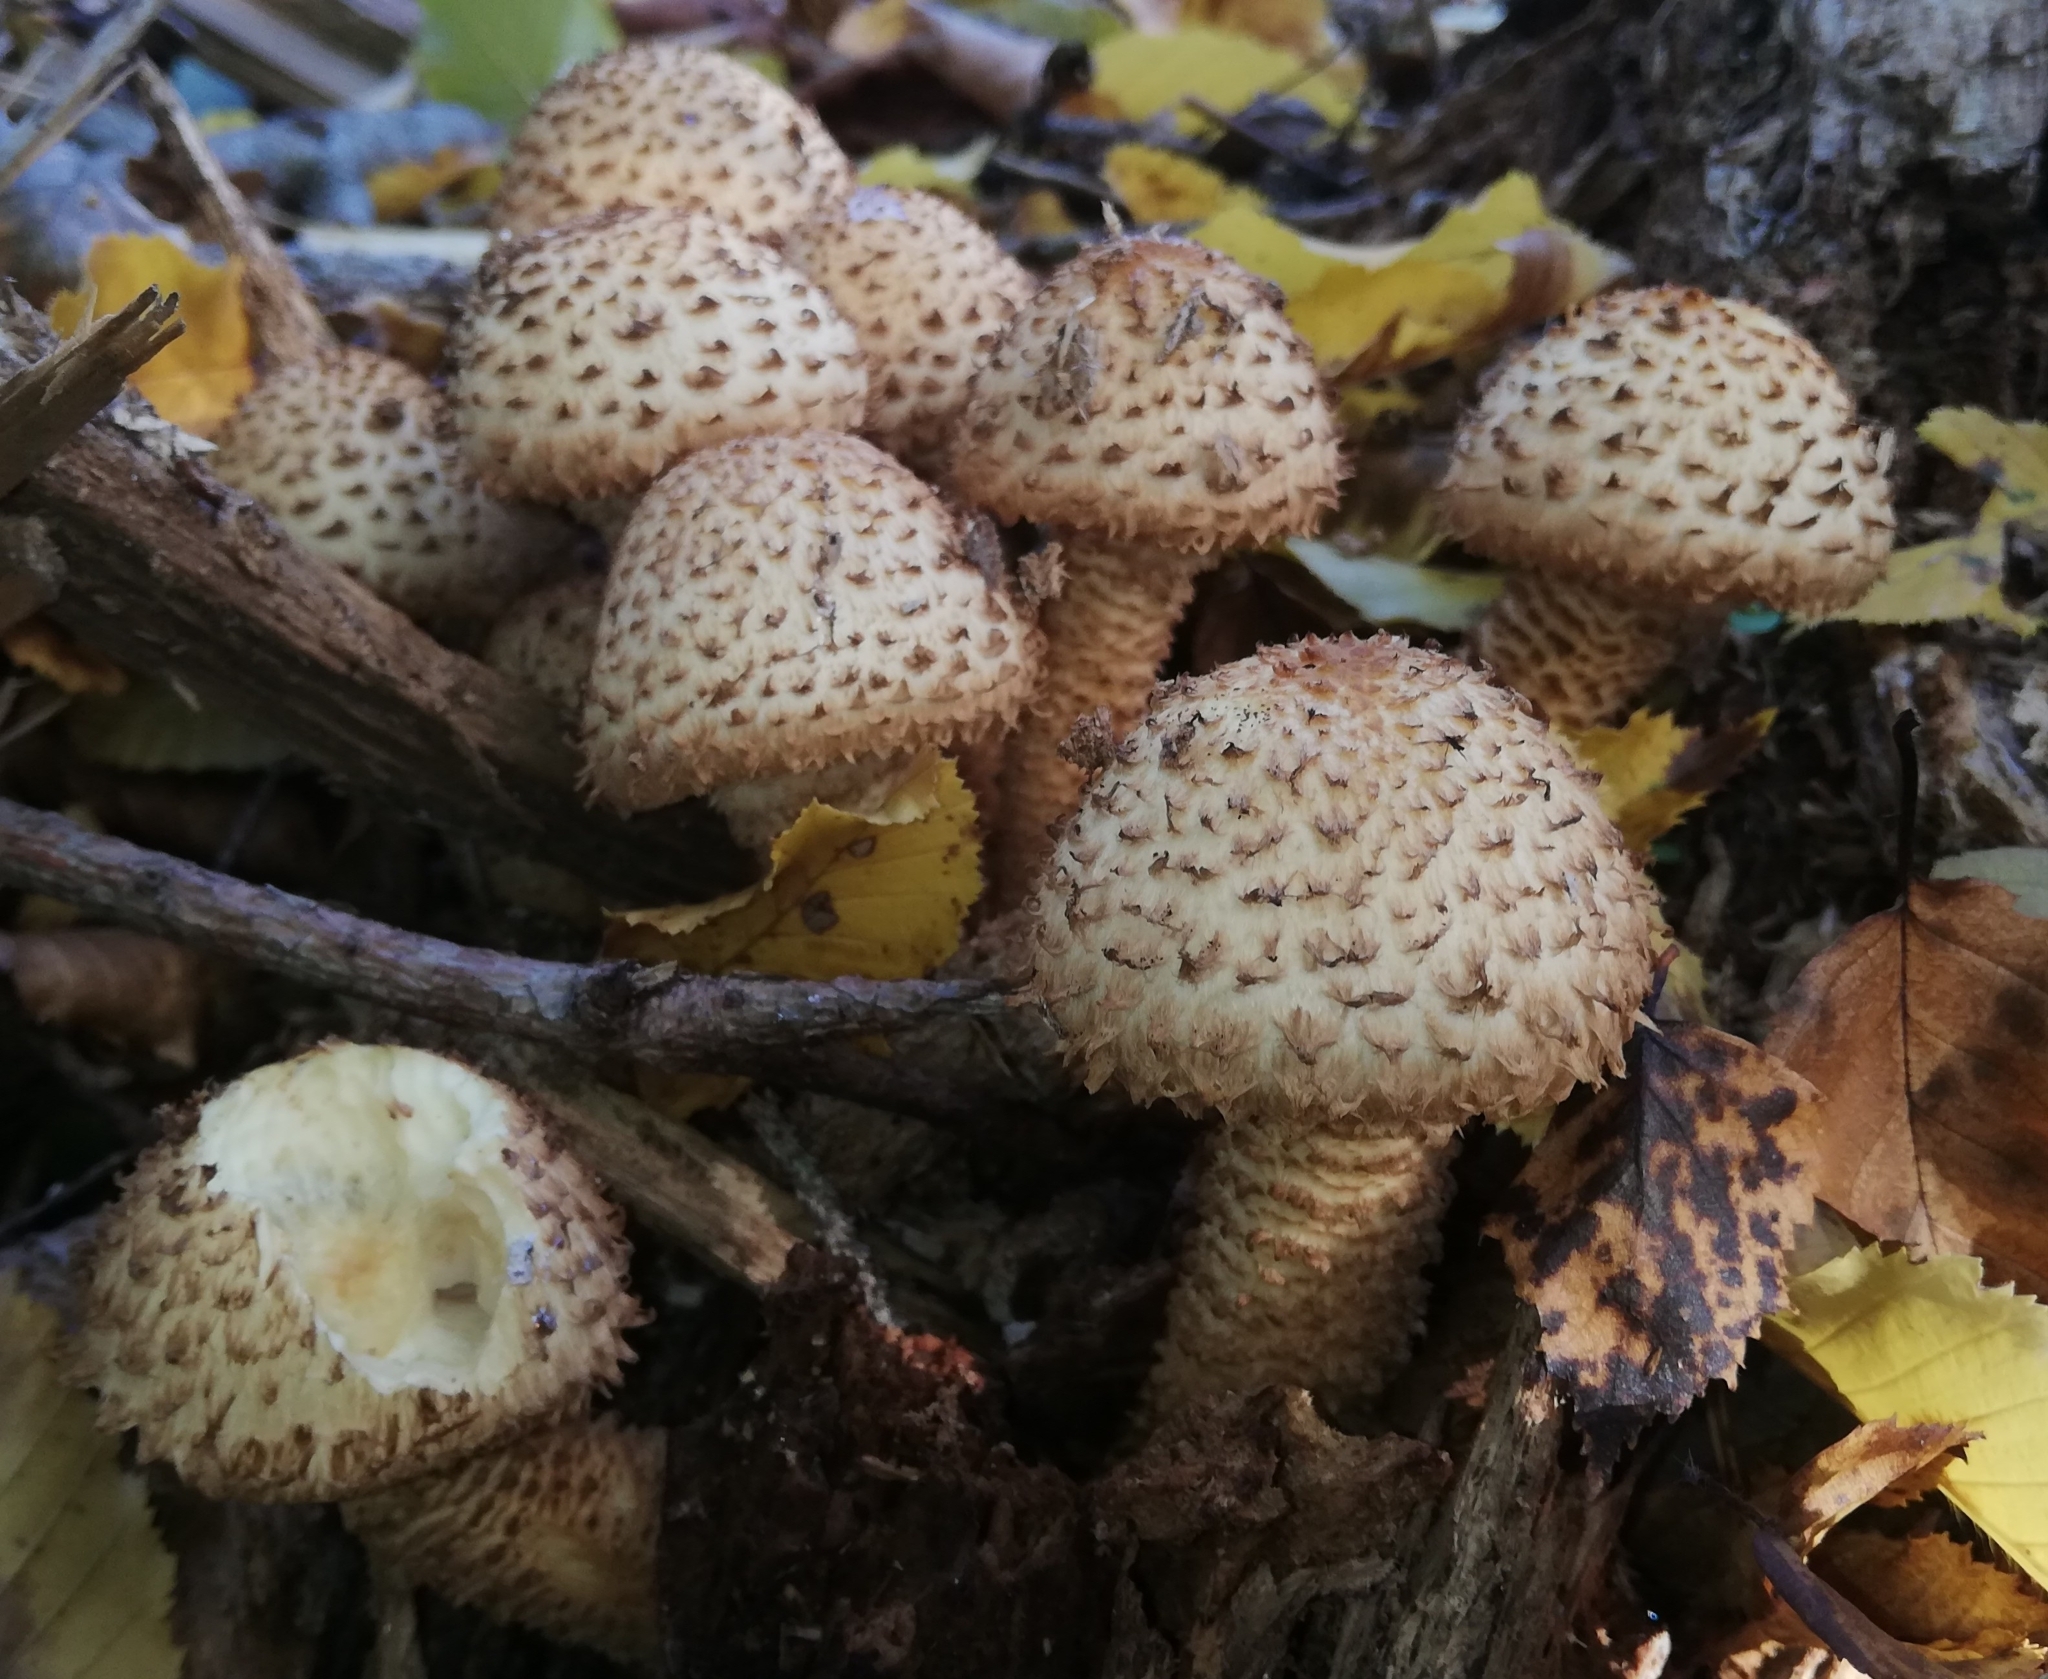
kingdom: Fungi
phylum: Basidiomycota
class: Agaricomycetes
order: Agaricales
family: Strophariaceae
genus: Pholiota
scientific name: Pholiota squarrosa
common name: Shaggy pholiota
